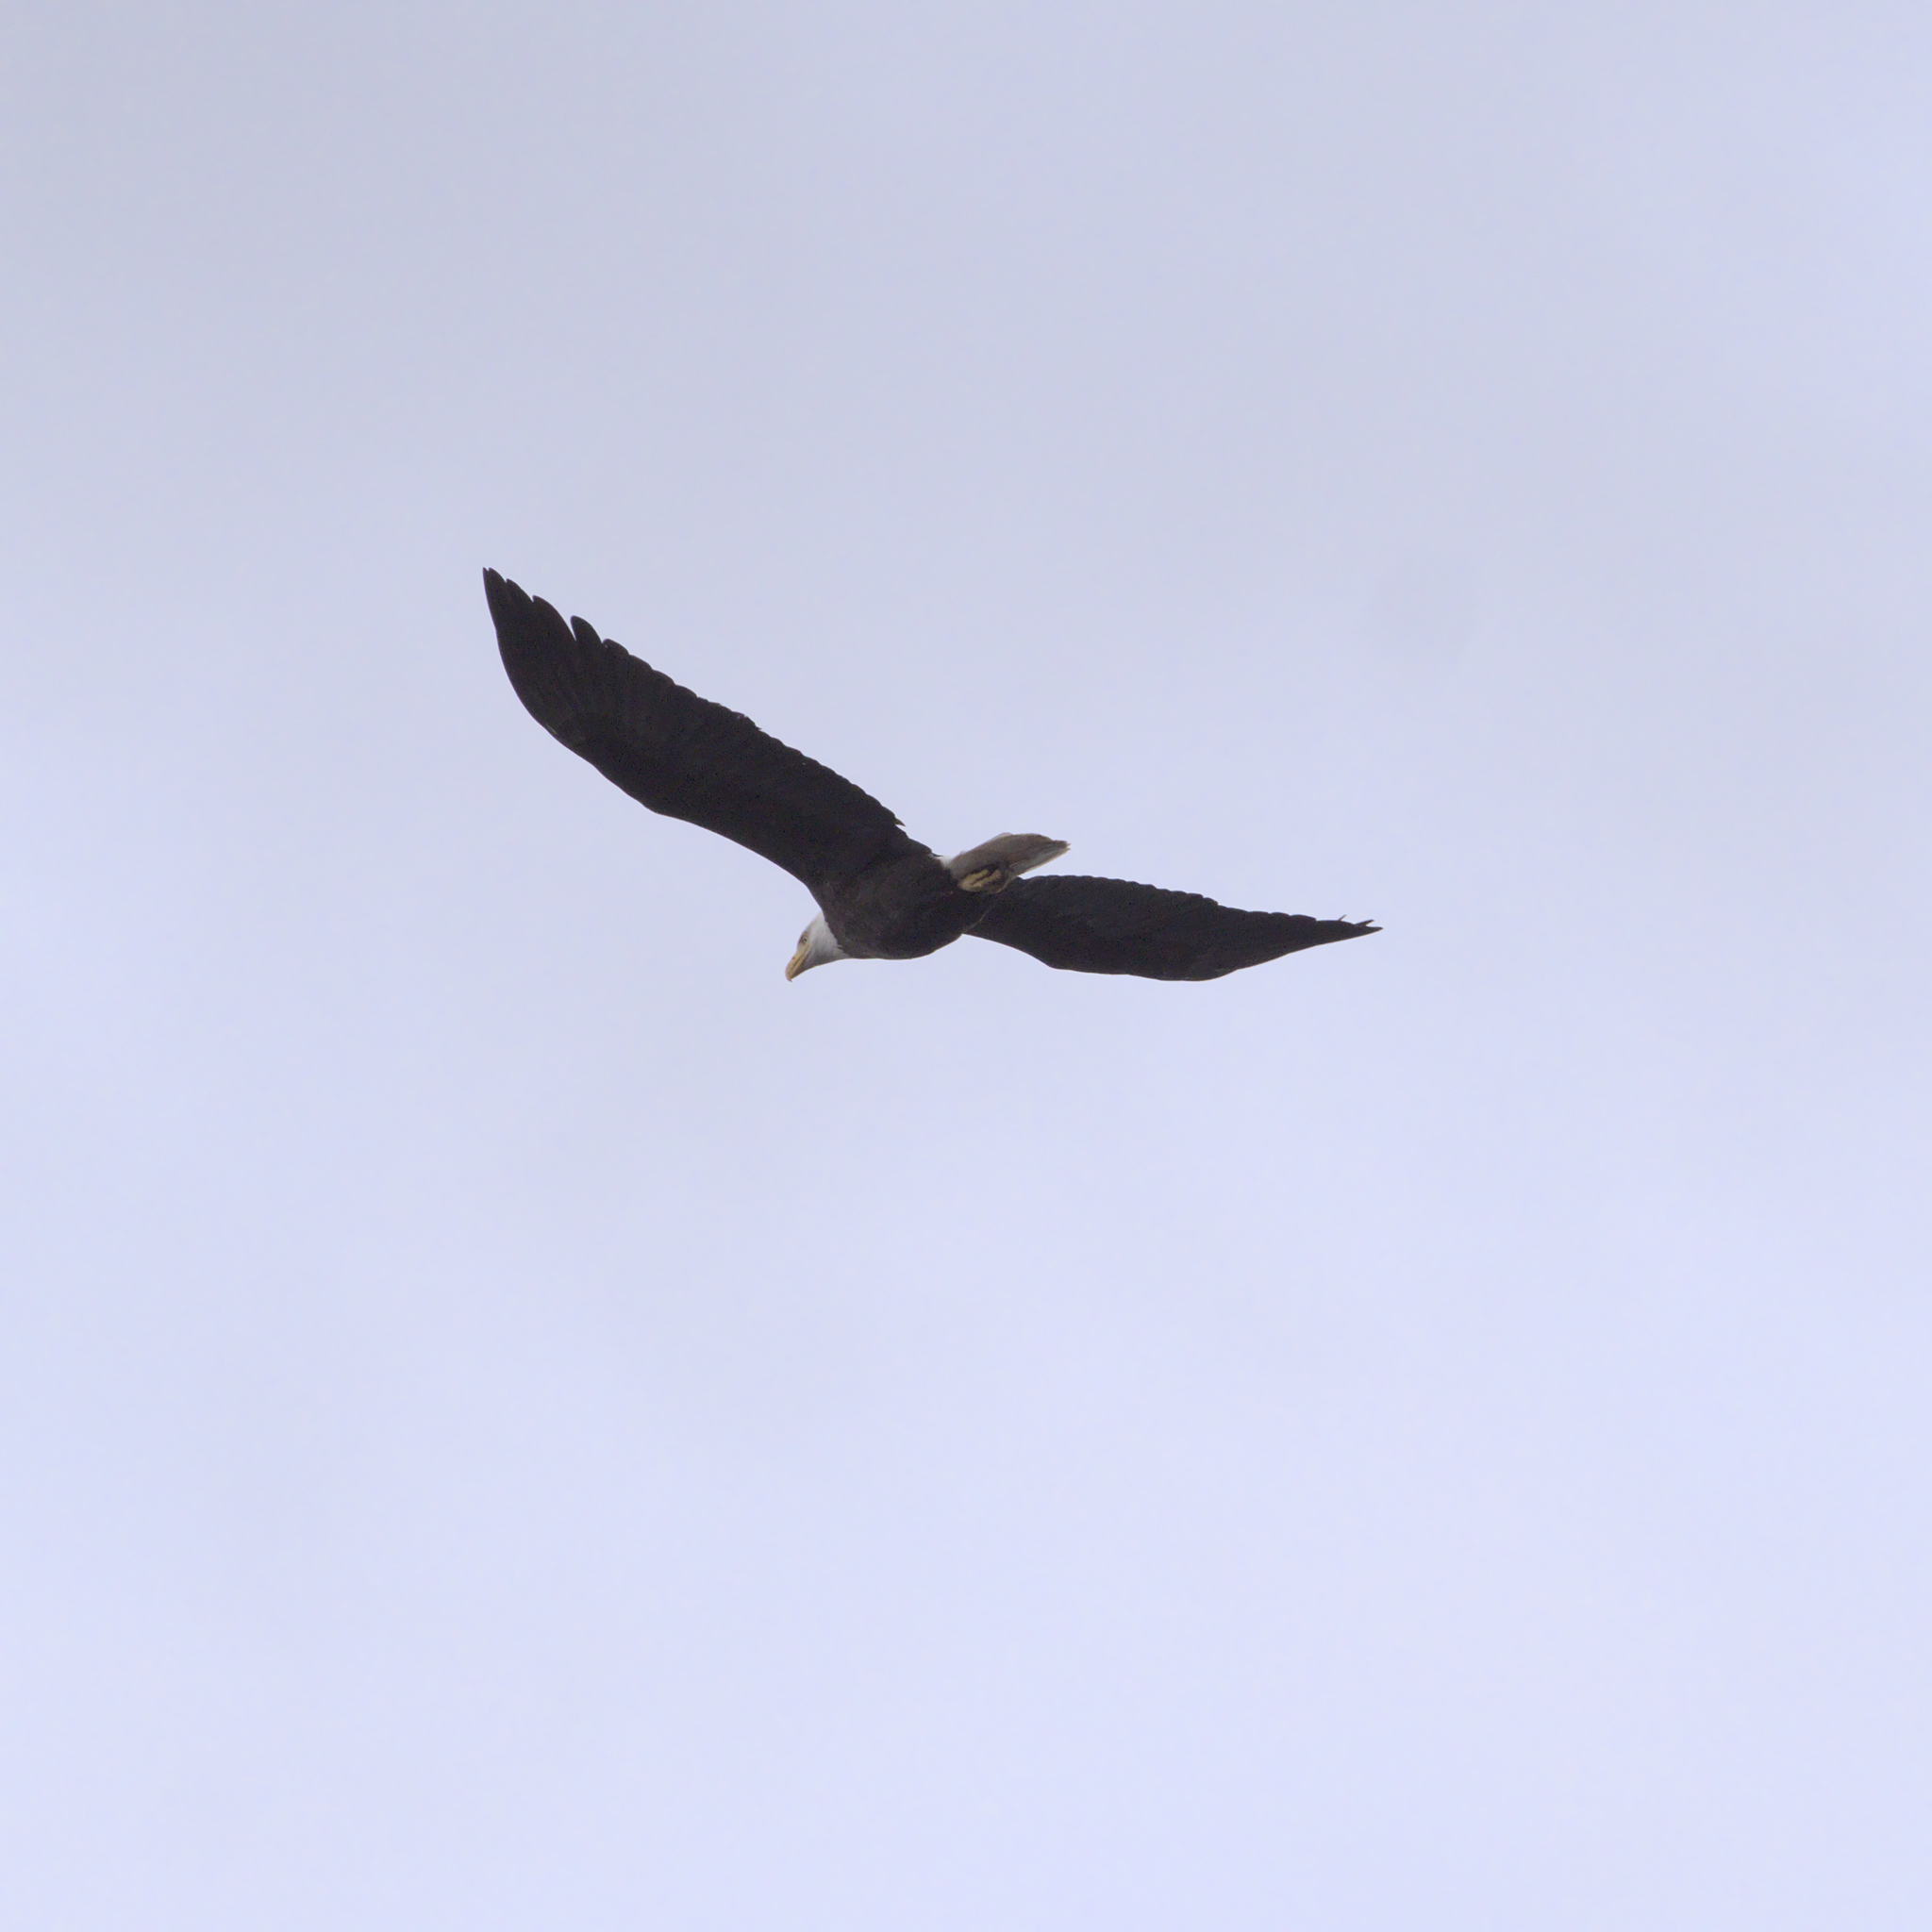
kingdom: Animalia
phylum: Chordata
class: Aves
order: Accipitriformes
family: Accipitridae
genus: Haliaeetus
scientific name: Haliaeetus leucocephalus
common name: Bald eagle
